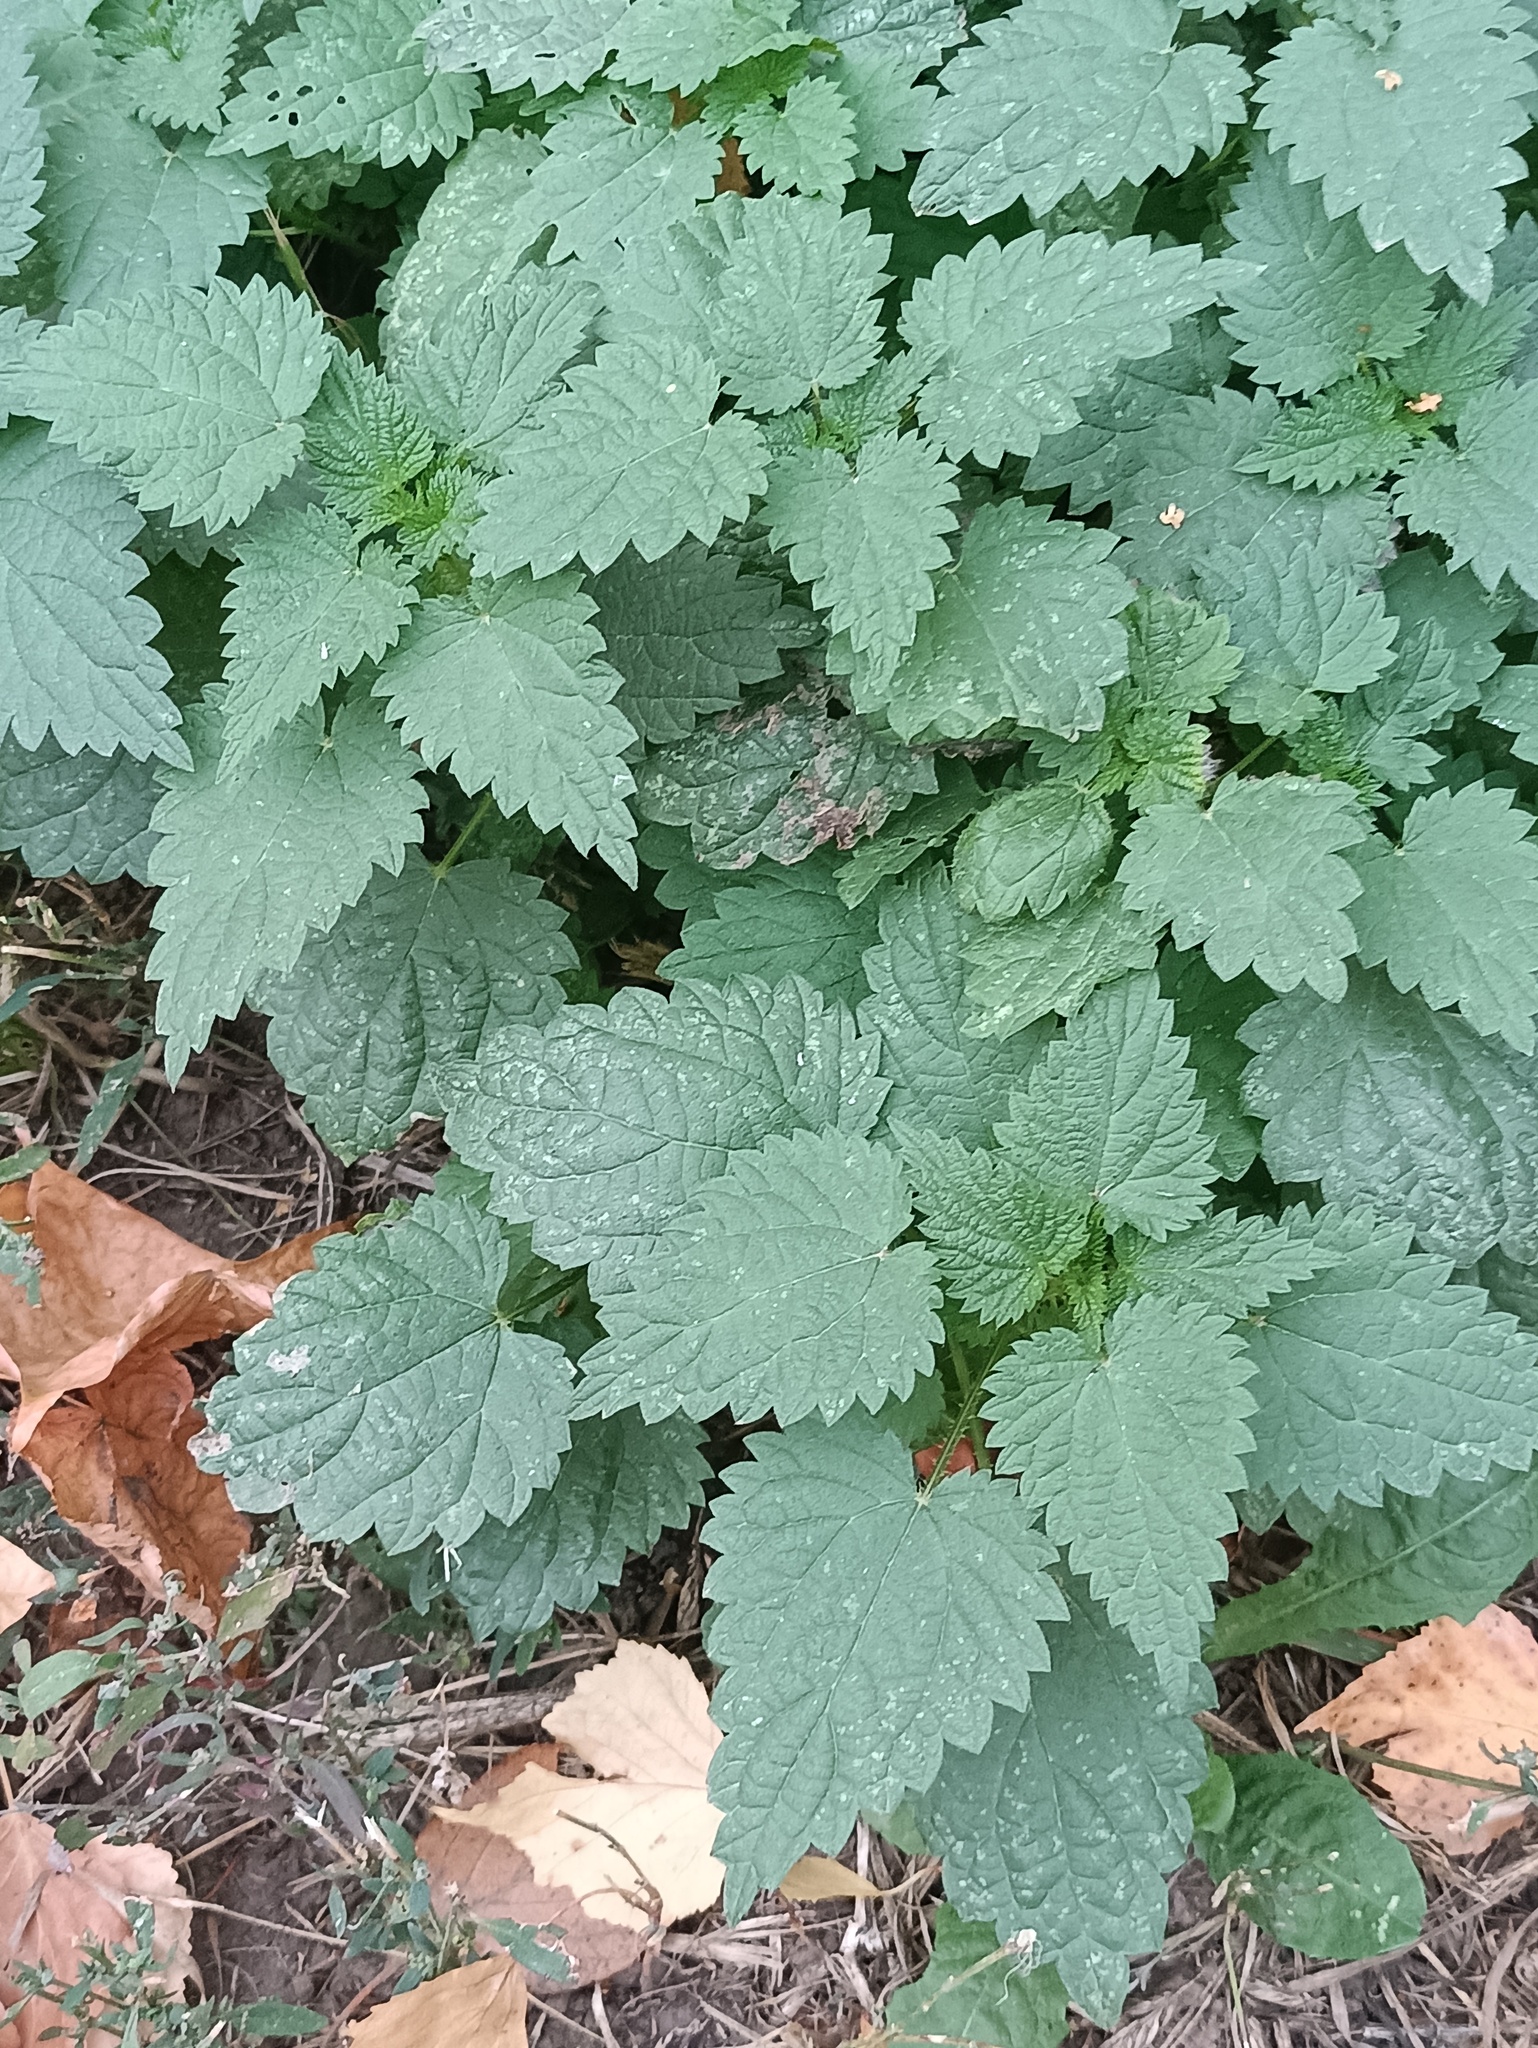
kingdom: Plantae
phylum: Tracheophyta
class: Magnoliopsida
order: Rosales
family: Urticaceae
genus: Urtica
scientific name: Urtica dioica
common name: Common nettle
